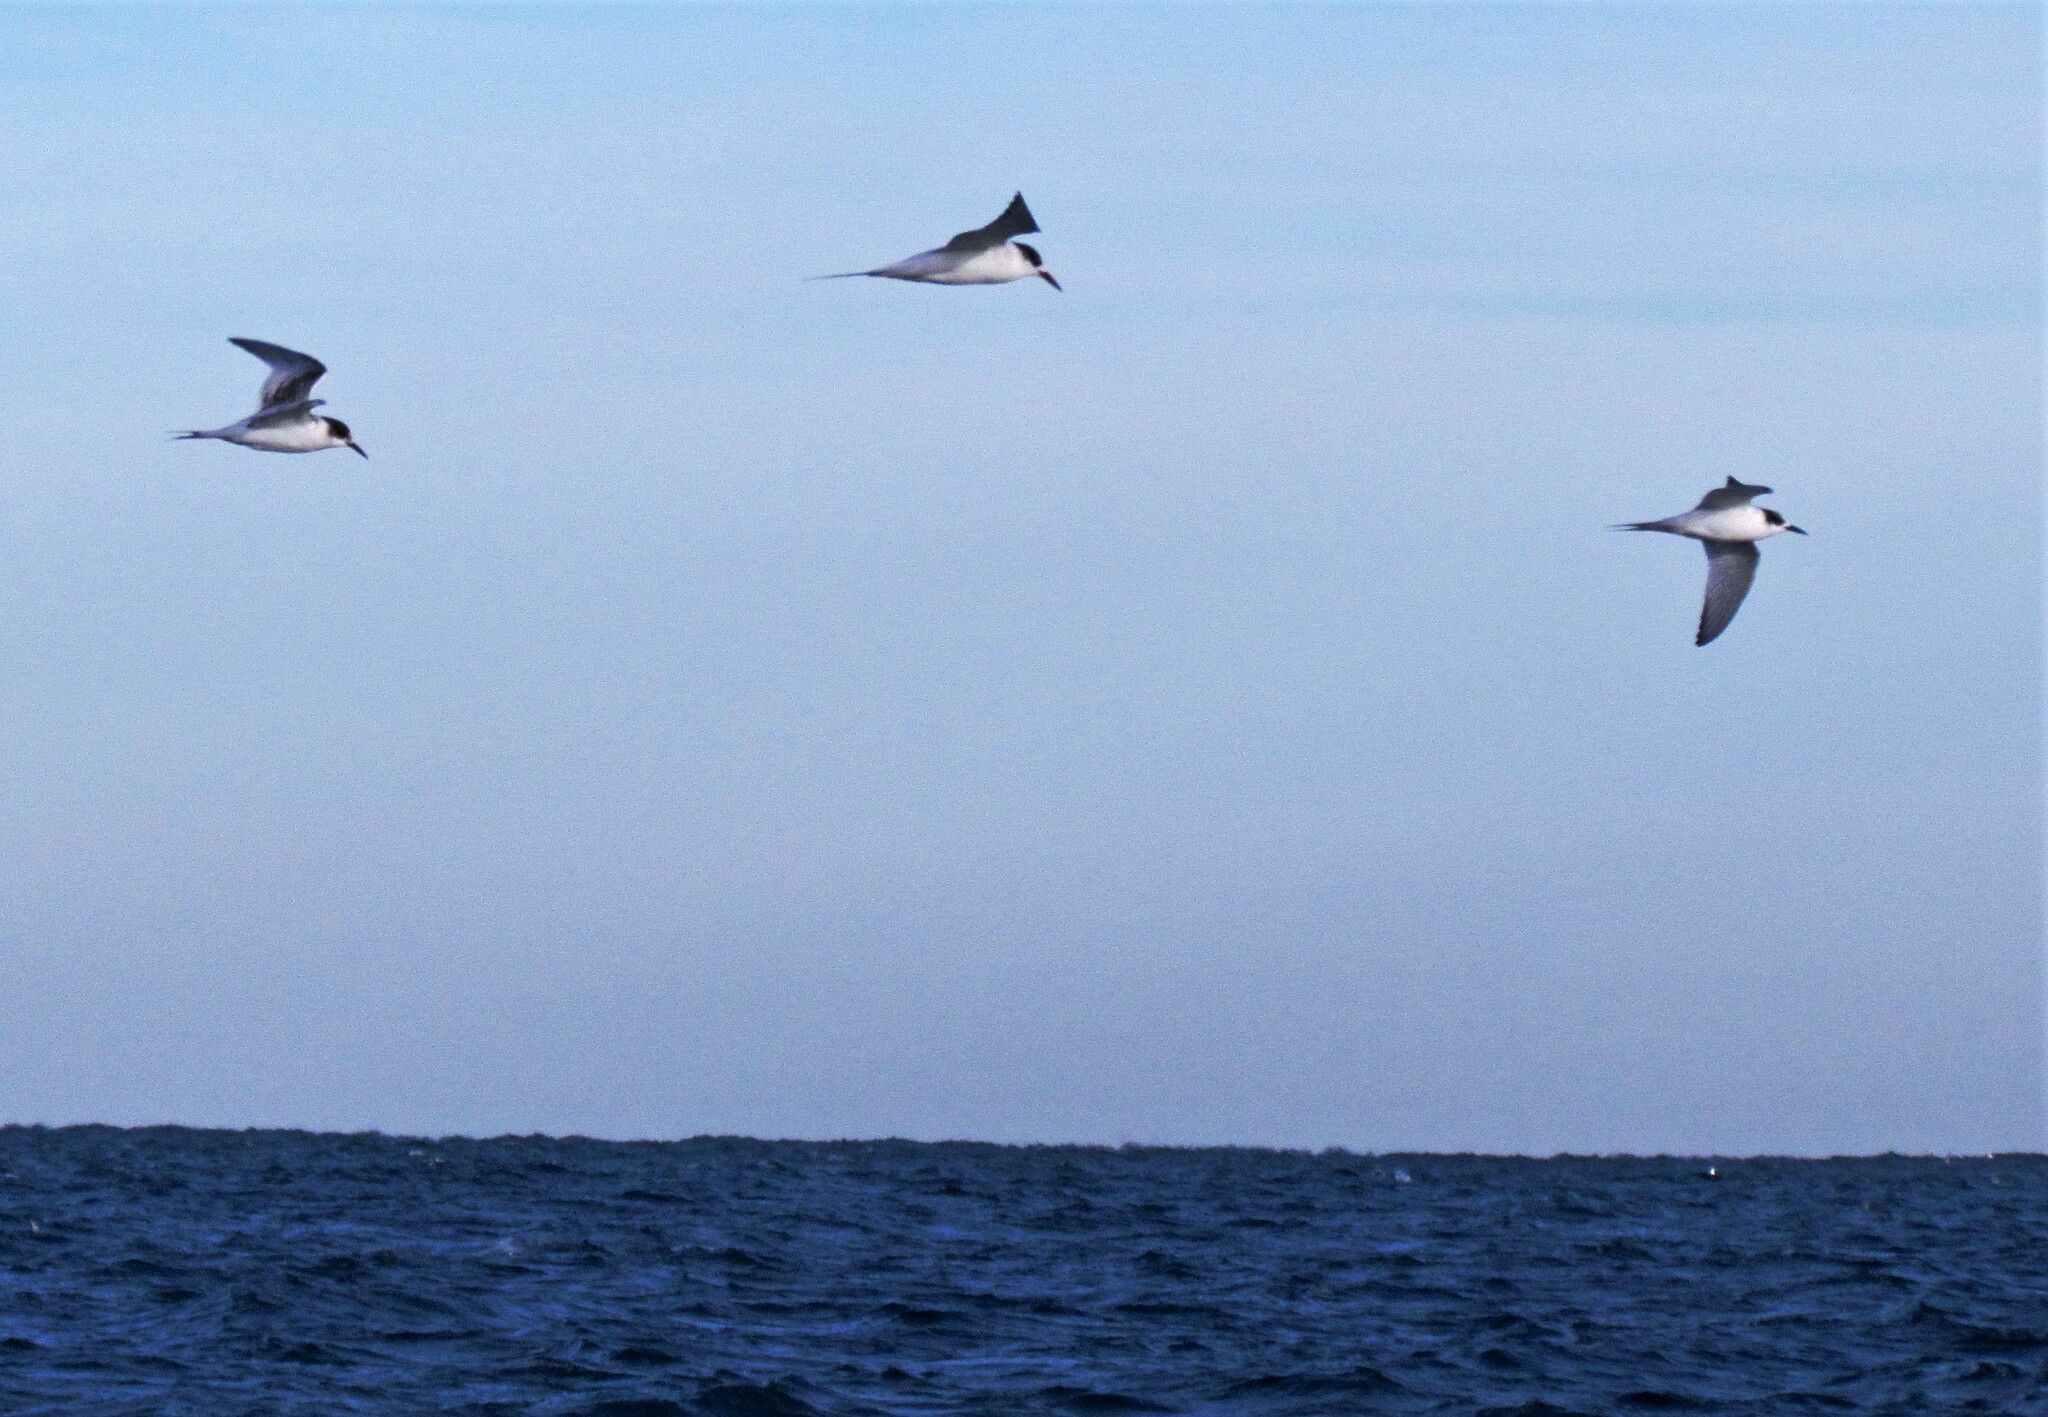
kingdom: Animalia
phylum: Chordata
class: Aves
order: Charadriiformes
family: Laridae
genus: Sterna
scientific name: Sterna hirundinacea
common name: South american tern
